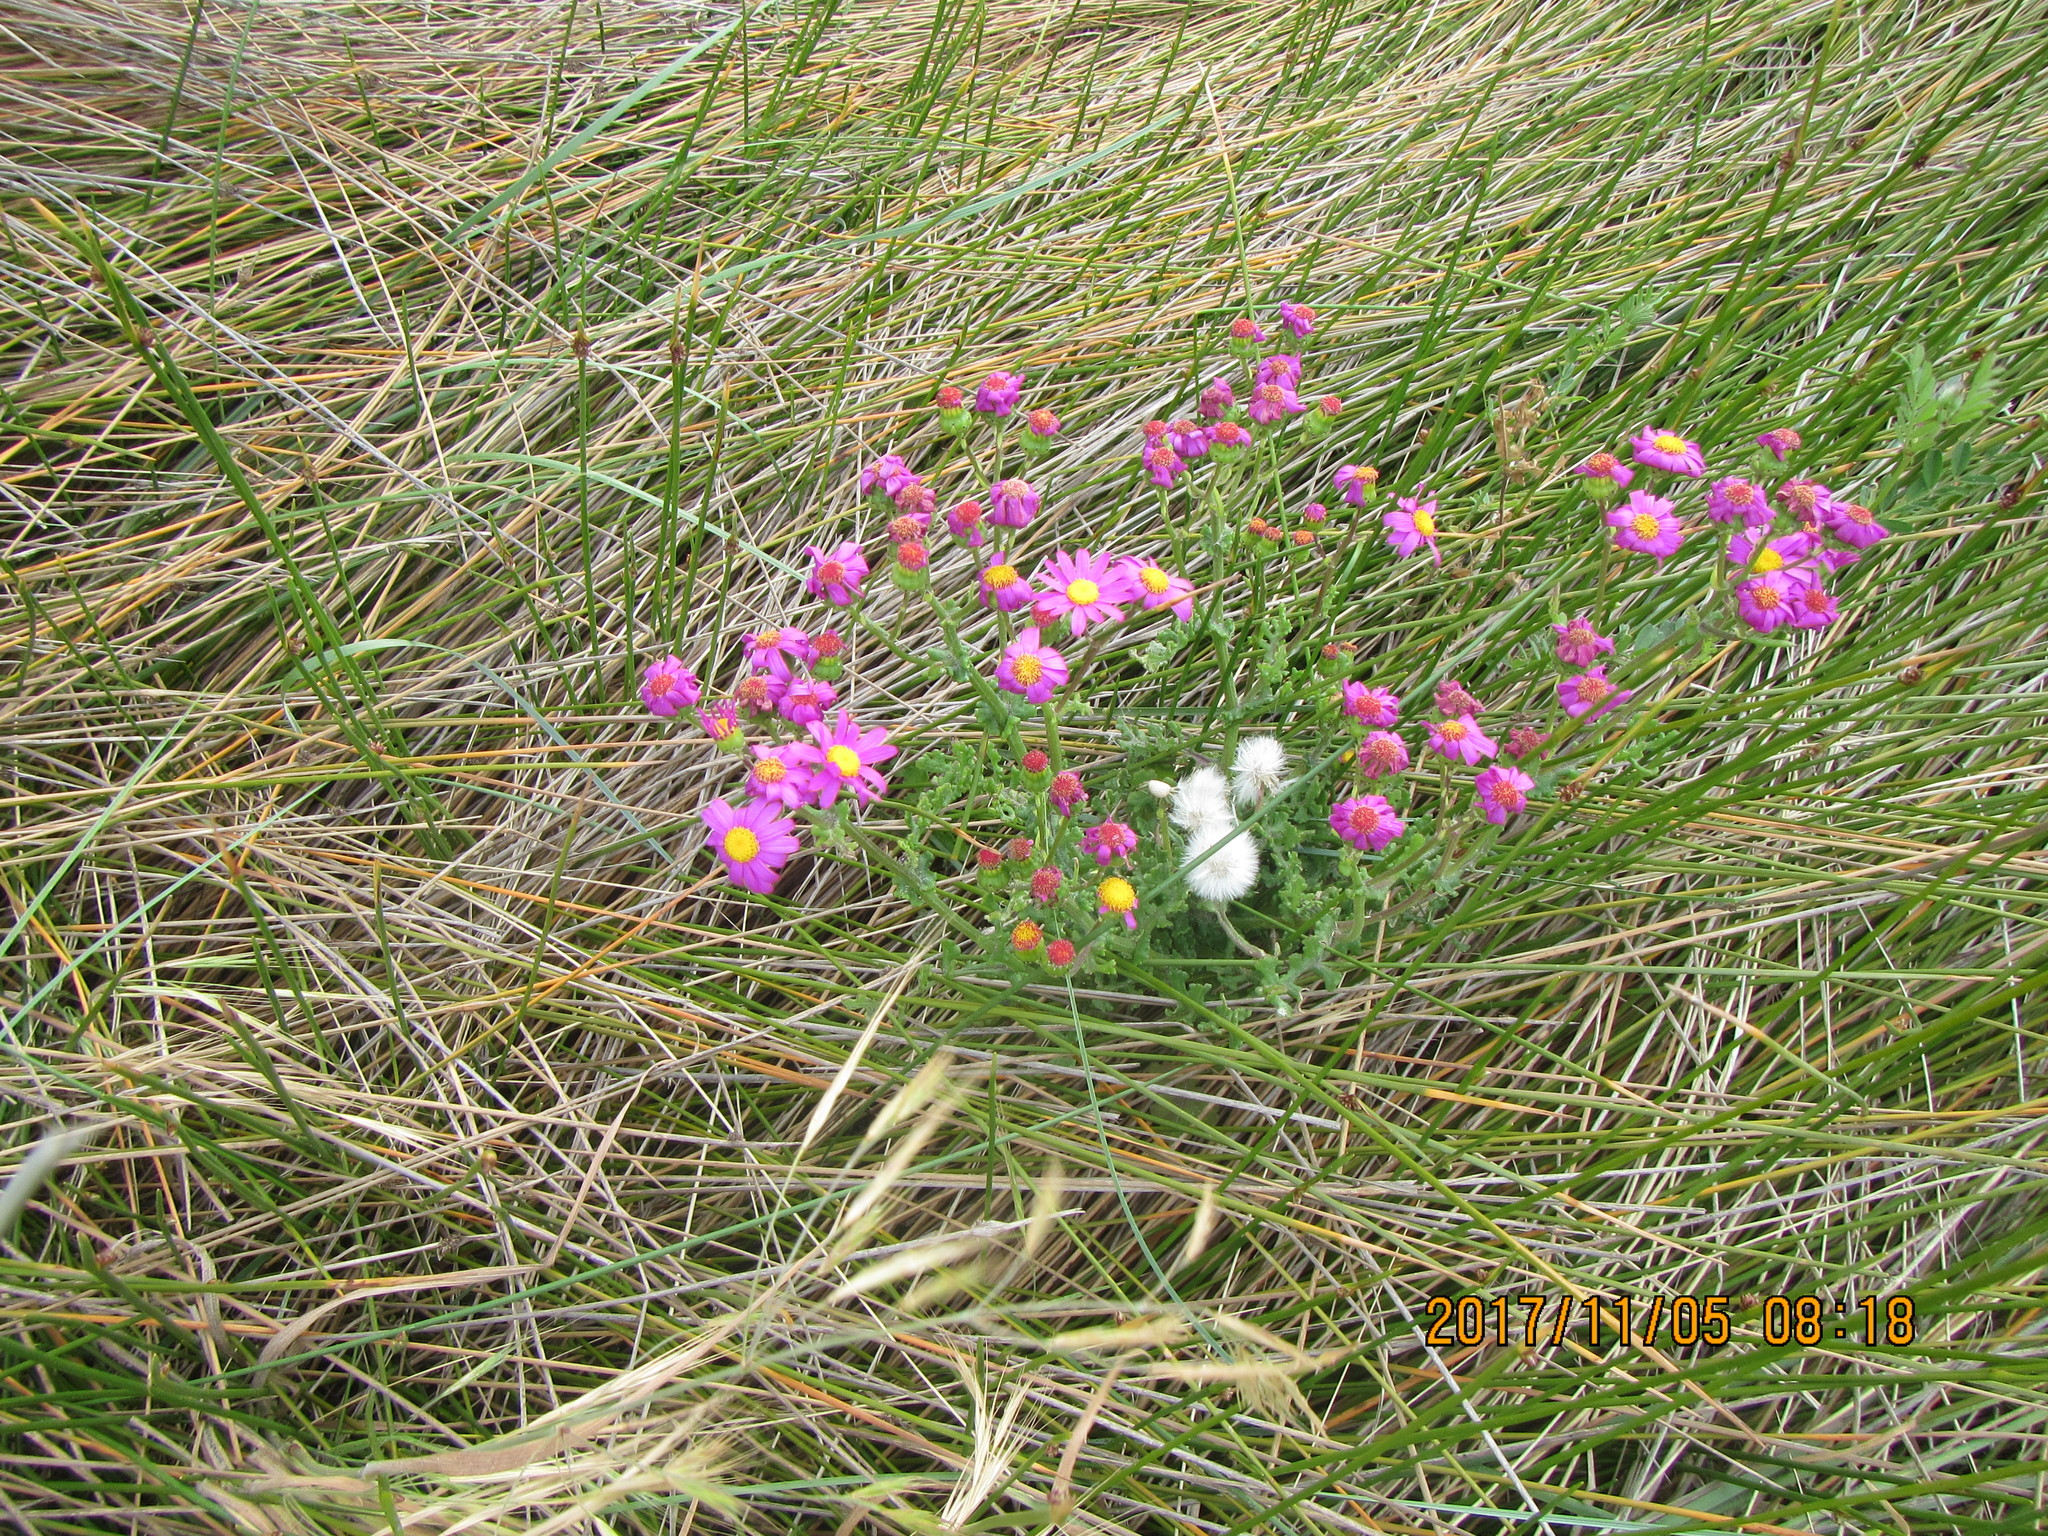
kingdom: Plantae
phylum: Tracheophyta
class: Magnoliopsida
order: Asterales
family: Asteraceae
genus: Senecio
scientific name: Senecio elegans
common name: Purple groundsel
